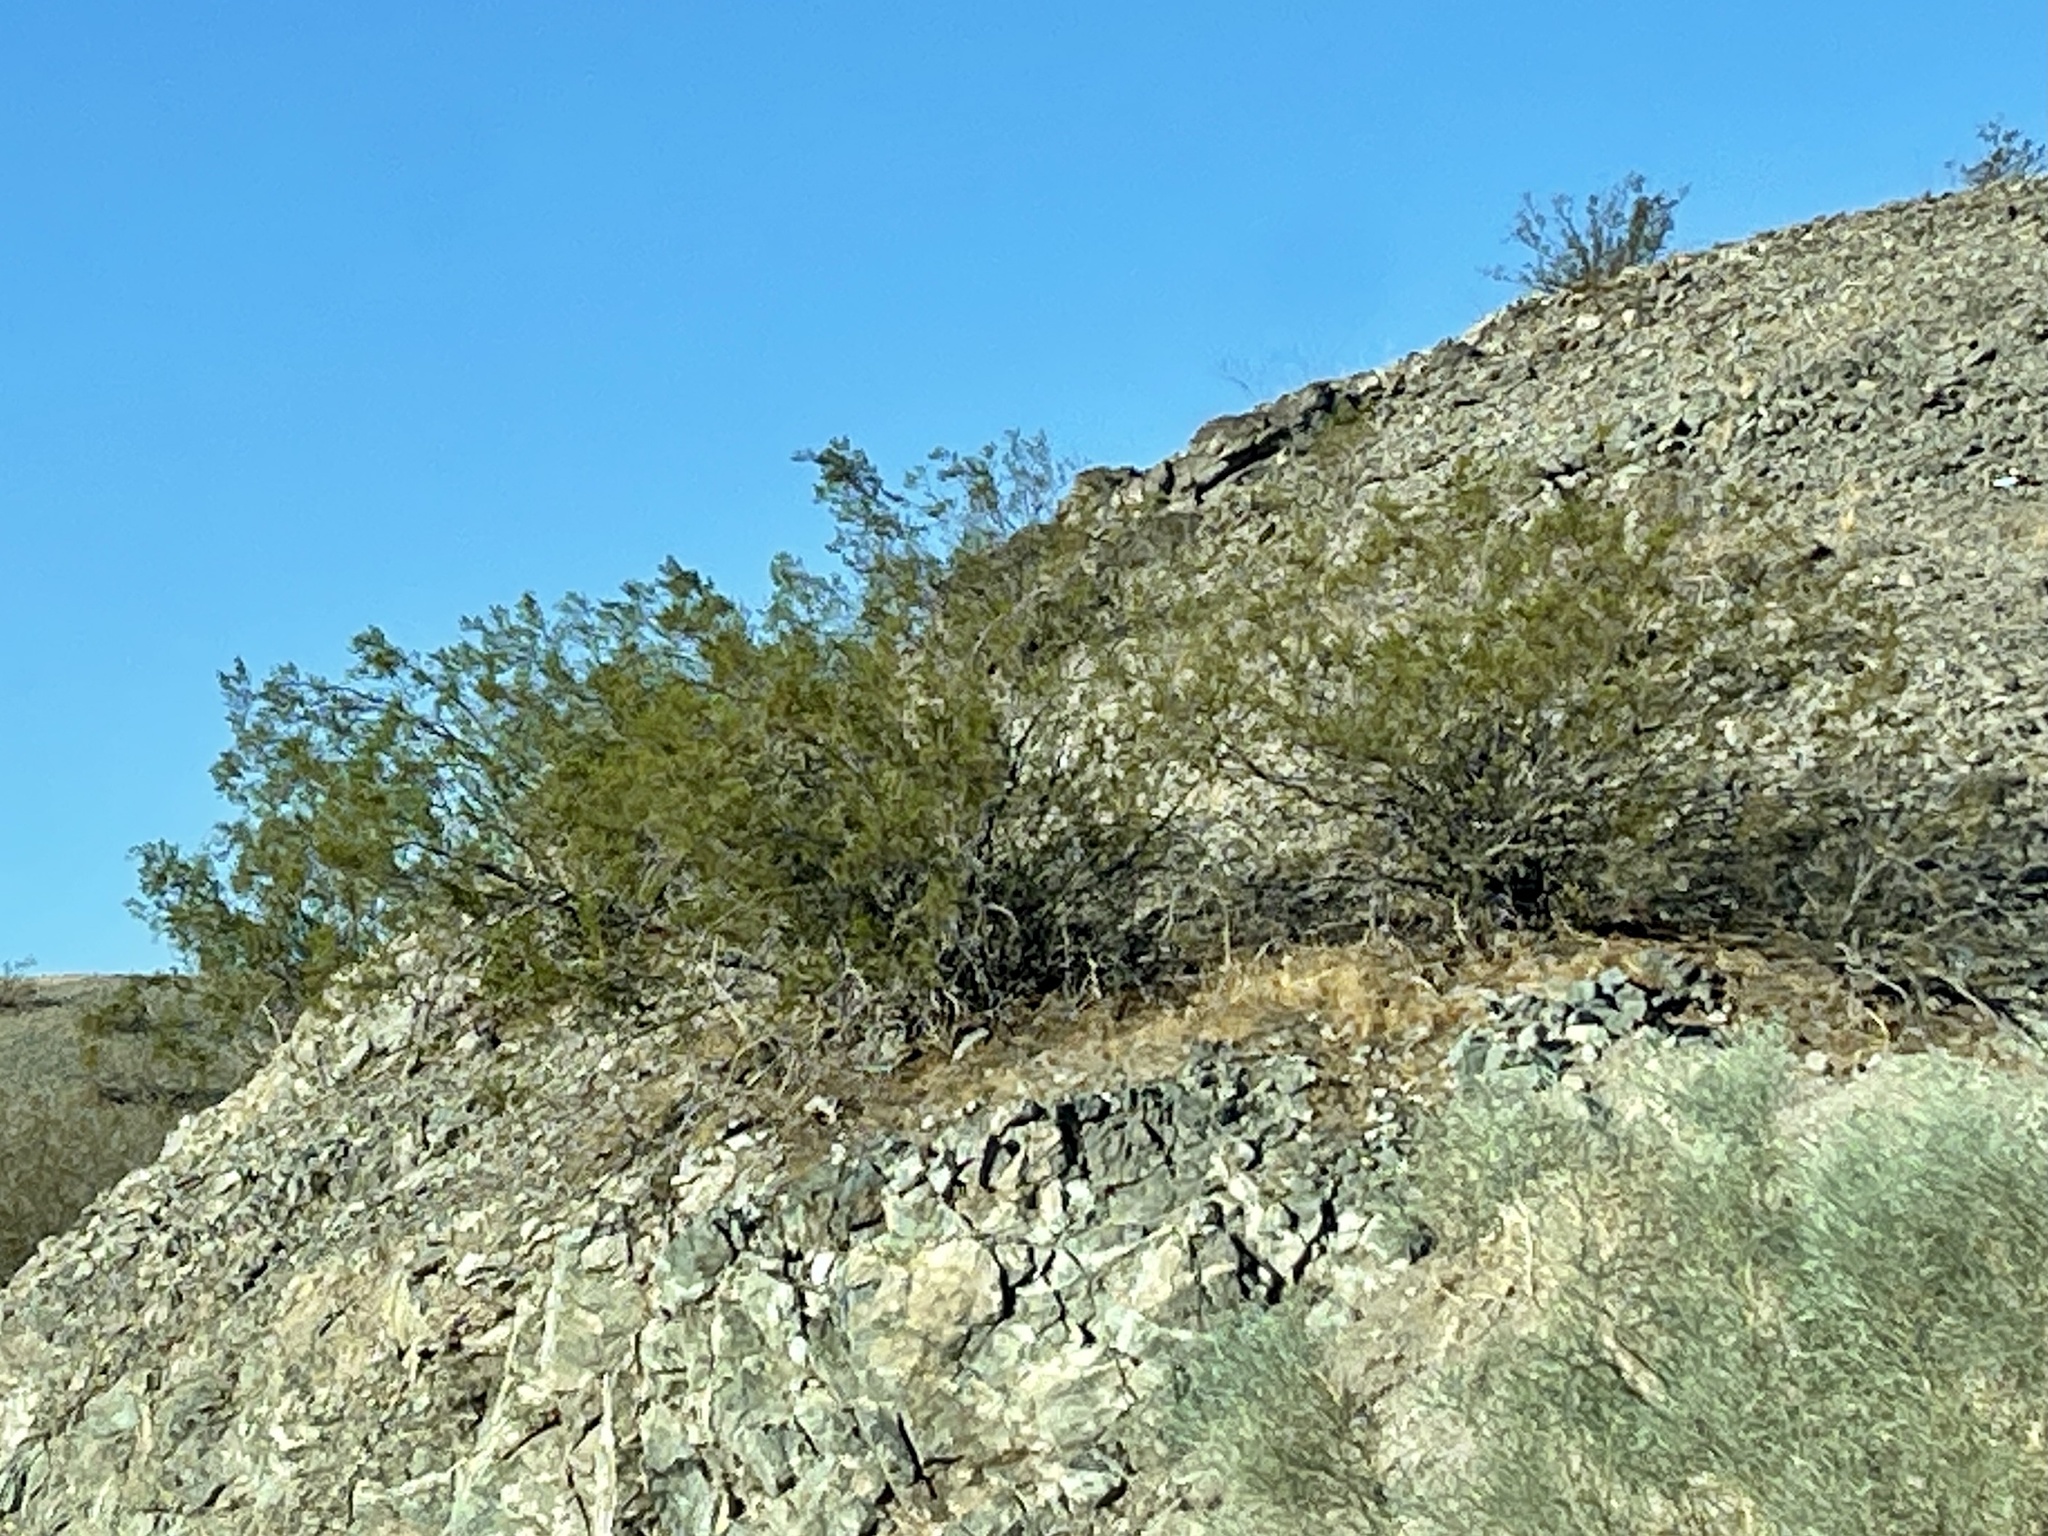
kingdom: Plantae
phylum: Tracheophyta
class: Magnoliopsida
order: Zygophyllales
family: Zygophyllaceae
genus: Larrea
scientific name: Larrea tridentata
